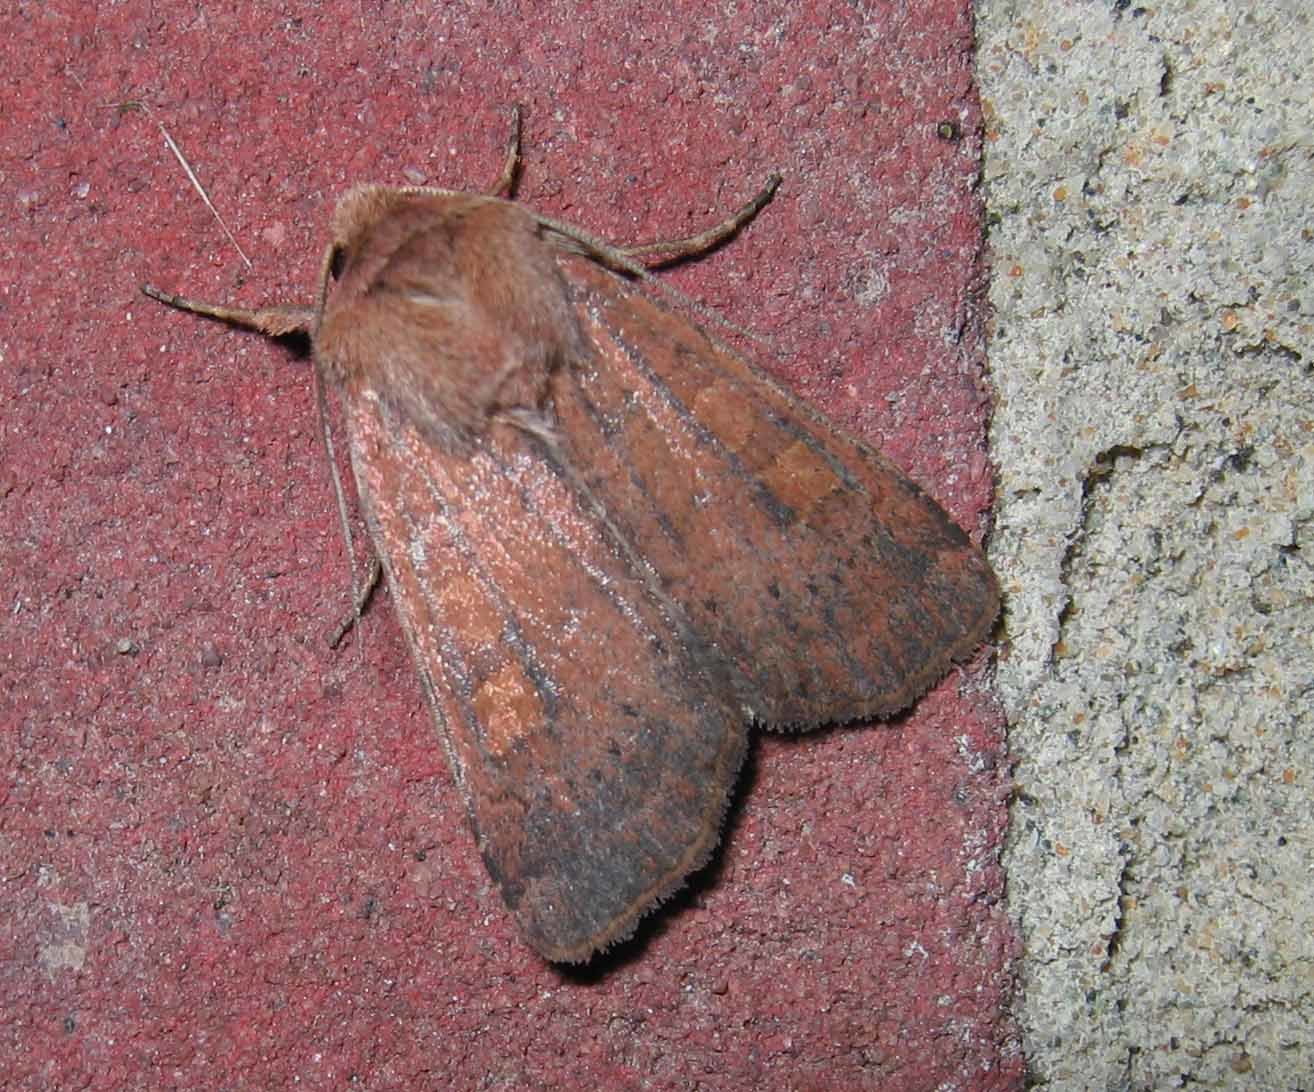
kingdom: Animalia
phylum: Arthropoda
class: Insecta
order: Lepidoptera
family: Noctuidae
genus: Xestia
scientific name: Xestia xanthographa
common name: Square-spot rustic
